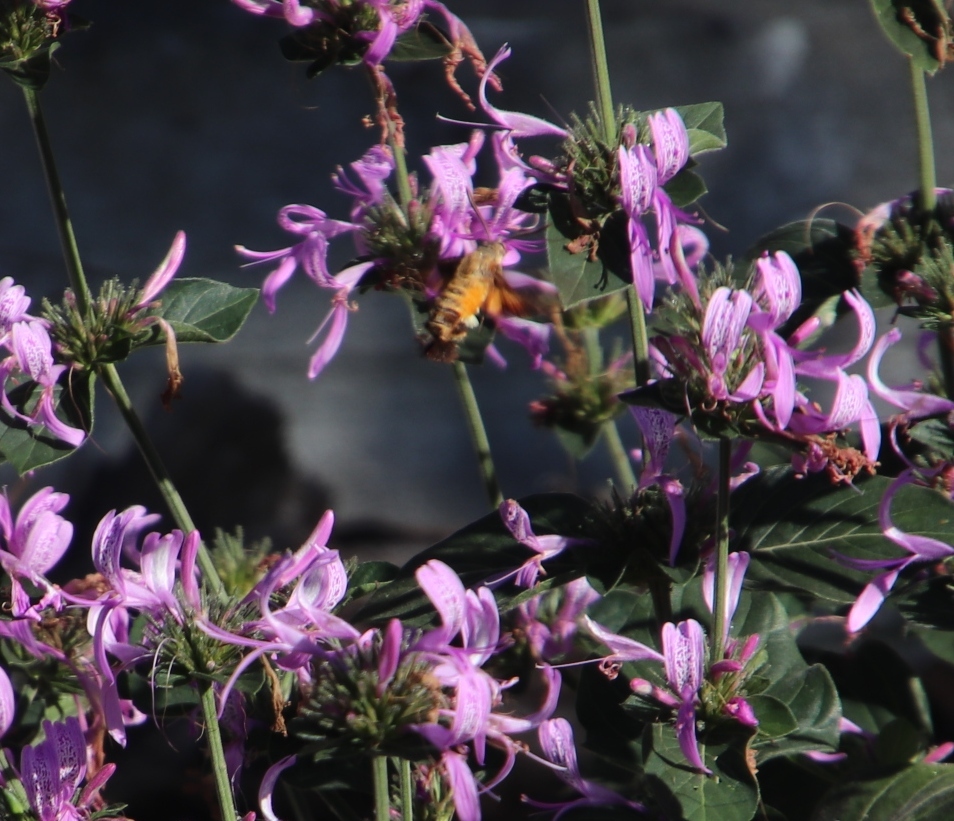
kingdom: Animalia
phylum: Arthropoda
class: Insecta
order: Lepidoptera
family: Sphingidae
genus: Macroglossum
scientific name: Macroglossum trochilus
